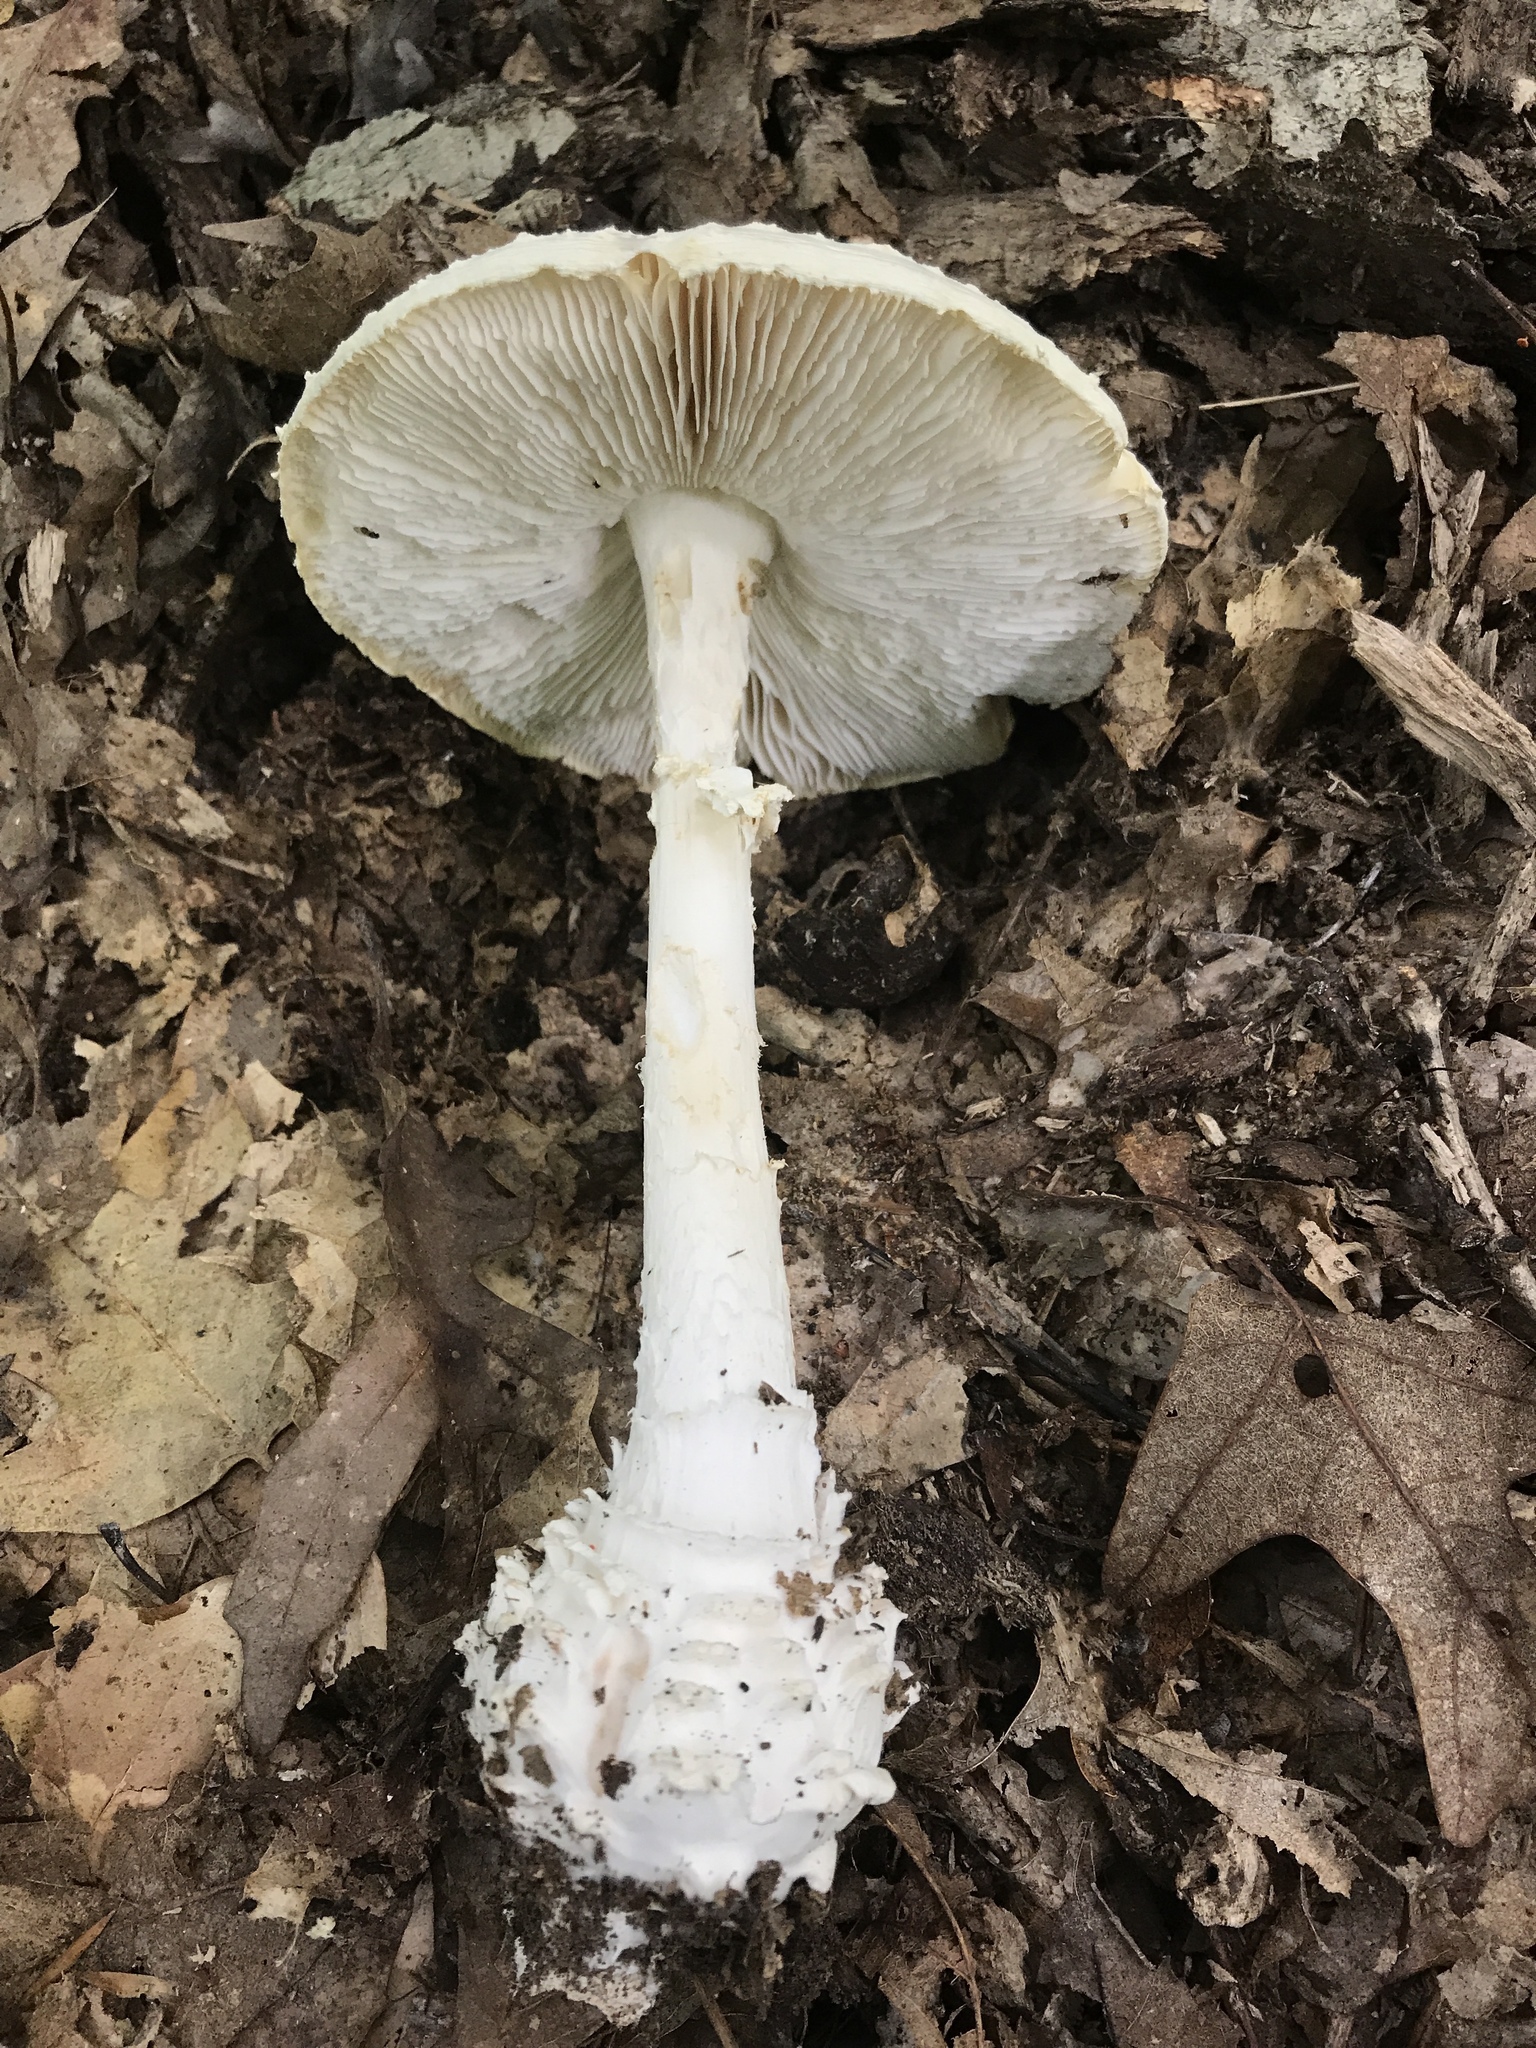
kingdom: Fungi
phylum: Basidiomycota
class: Agaricomycetes
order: Agaricales
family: Amanitaceae
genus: Amanita
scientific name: Amanita cokeri
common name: Coker's amanita
